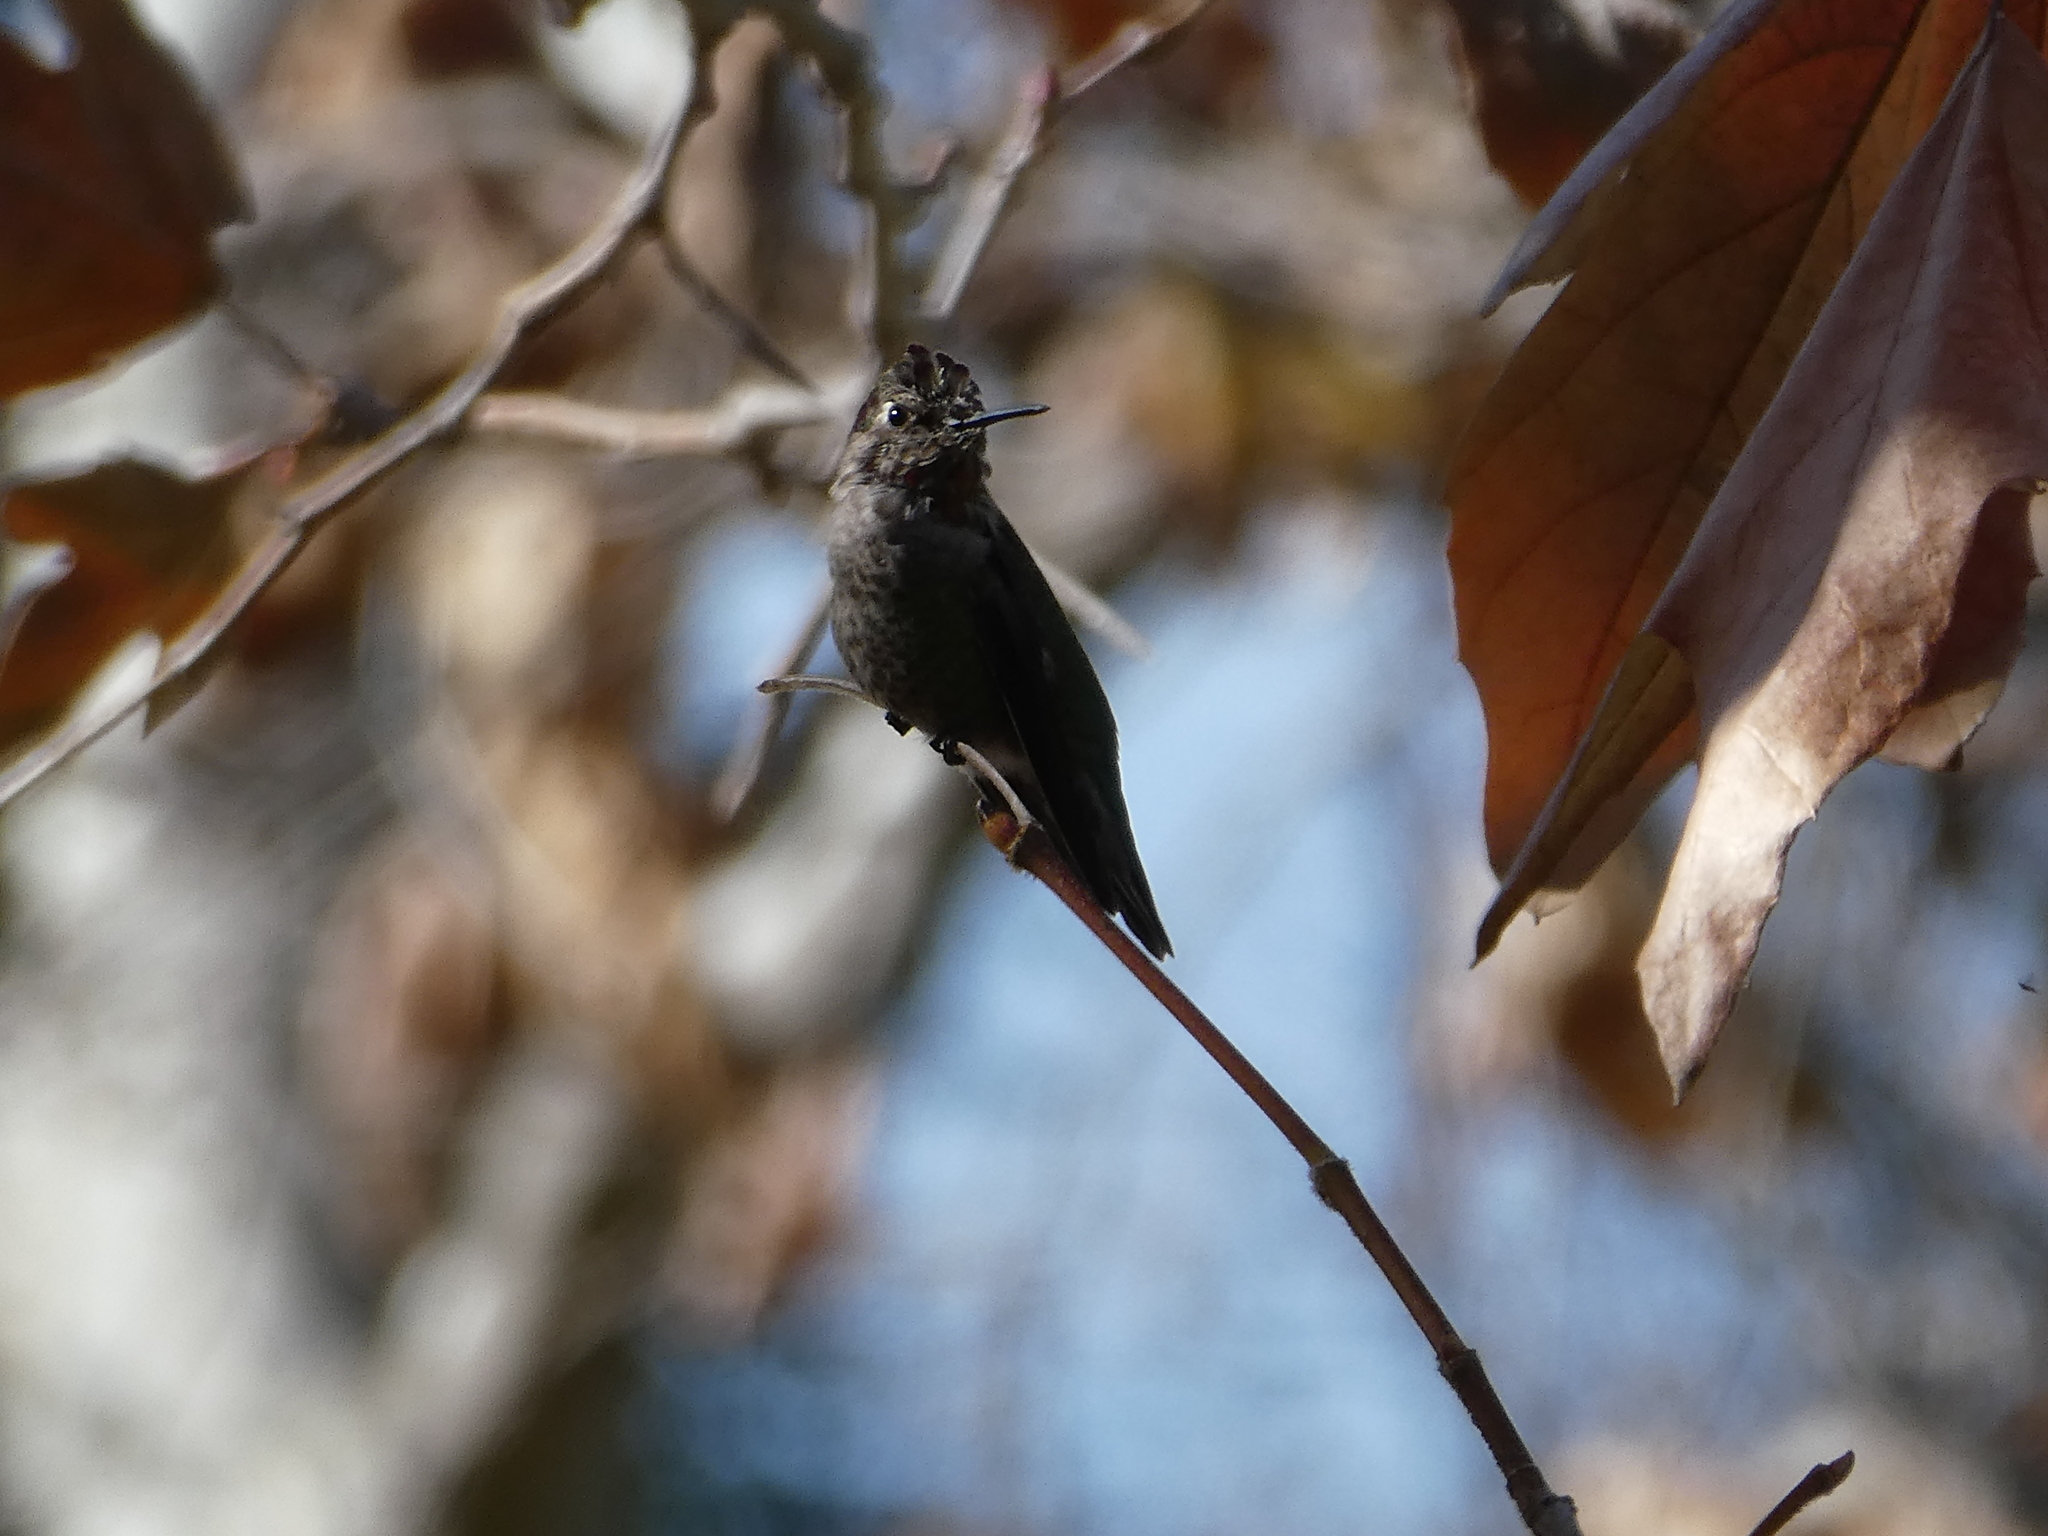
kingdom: Animalia
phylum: Chordata
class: Aves
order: Apodiformes
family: Trochilidae
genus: Calypte
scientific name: Calypte anna
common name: Anna's hummingbird
